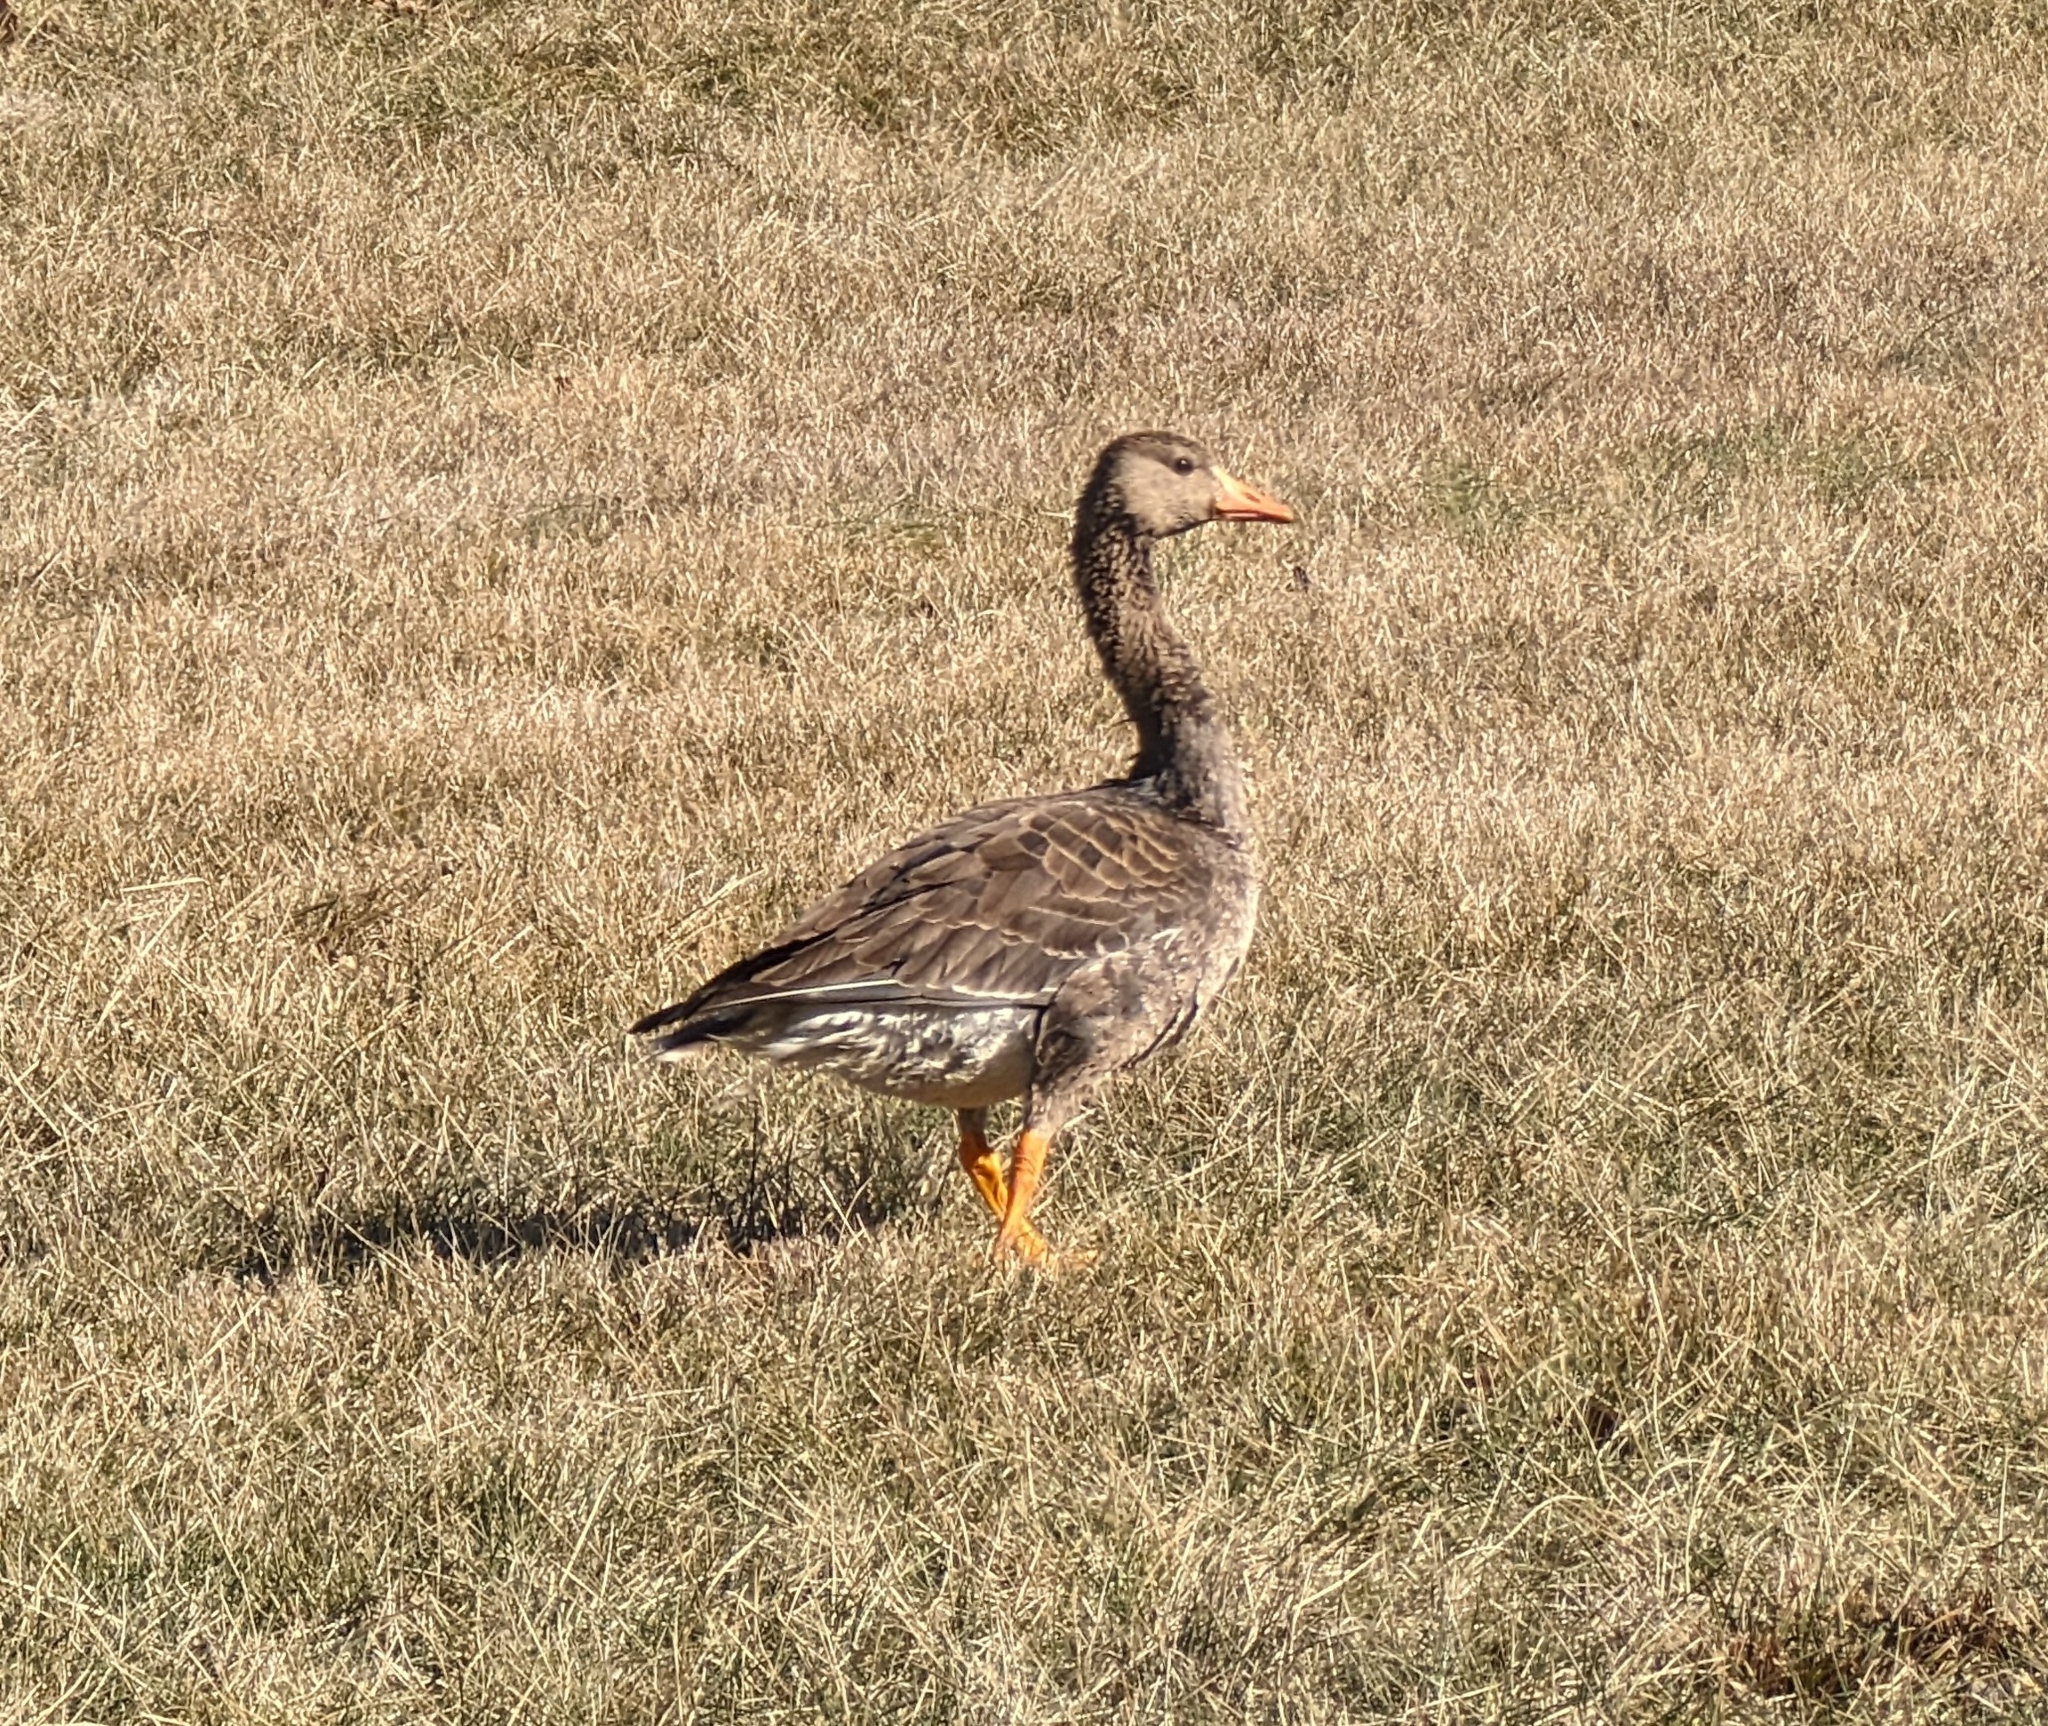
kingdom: Animalia
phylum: Chordata
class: Aves
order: Anseriformes
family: Anatidae
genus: Anser
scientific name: Anser albifrons
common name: Greater white-fronted goose
